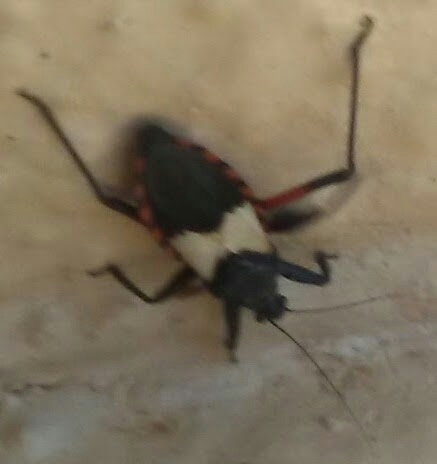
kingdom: Animalia
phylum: Arthropoda
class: Insecta
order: Hemiptera
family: Reduviidae
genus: Microtomus
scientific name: Microtomus purcis
